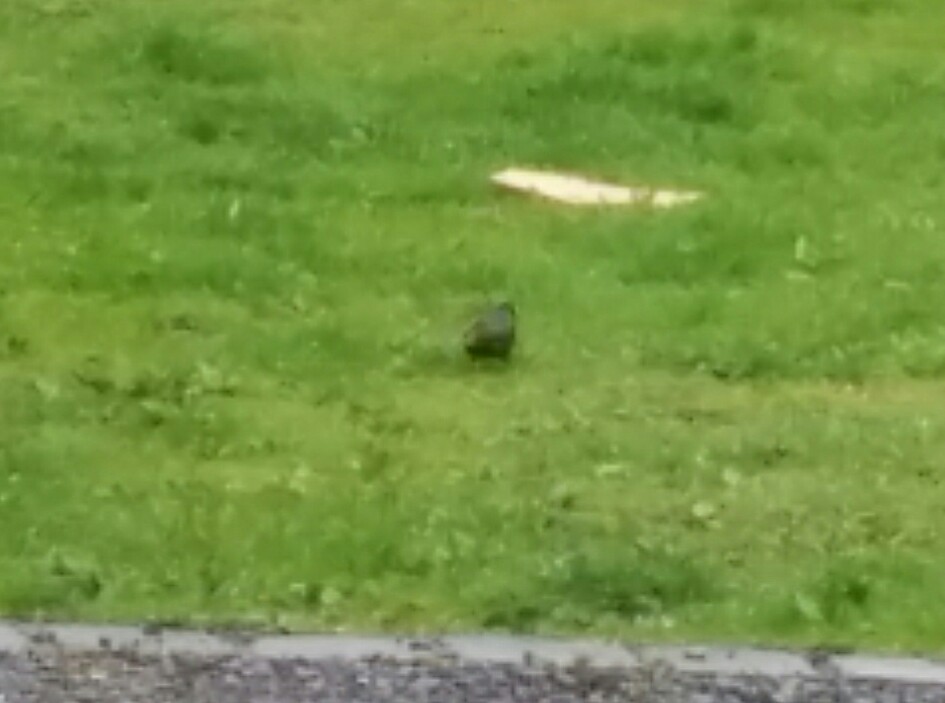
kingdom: Animalia
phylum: Chordata
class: Aves
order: Passeriformes
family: Sturnidae
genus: Sturnus
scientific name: Sturnus vulgaris
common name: Common starling
